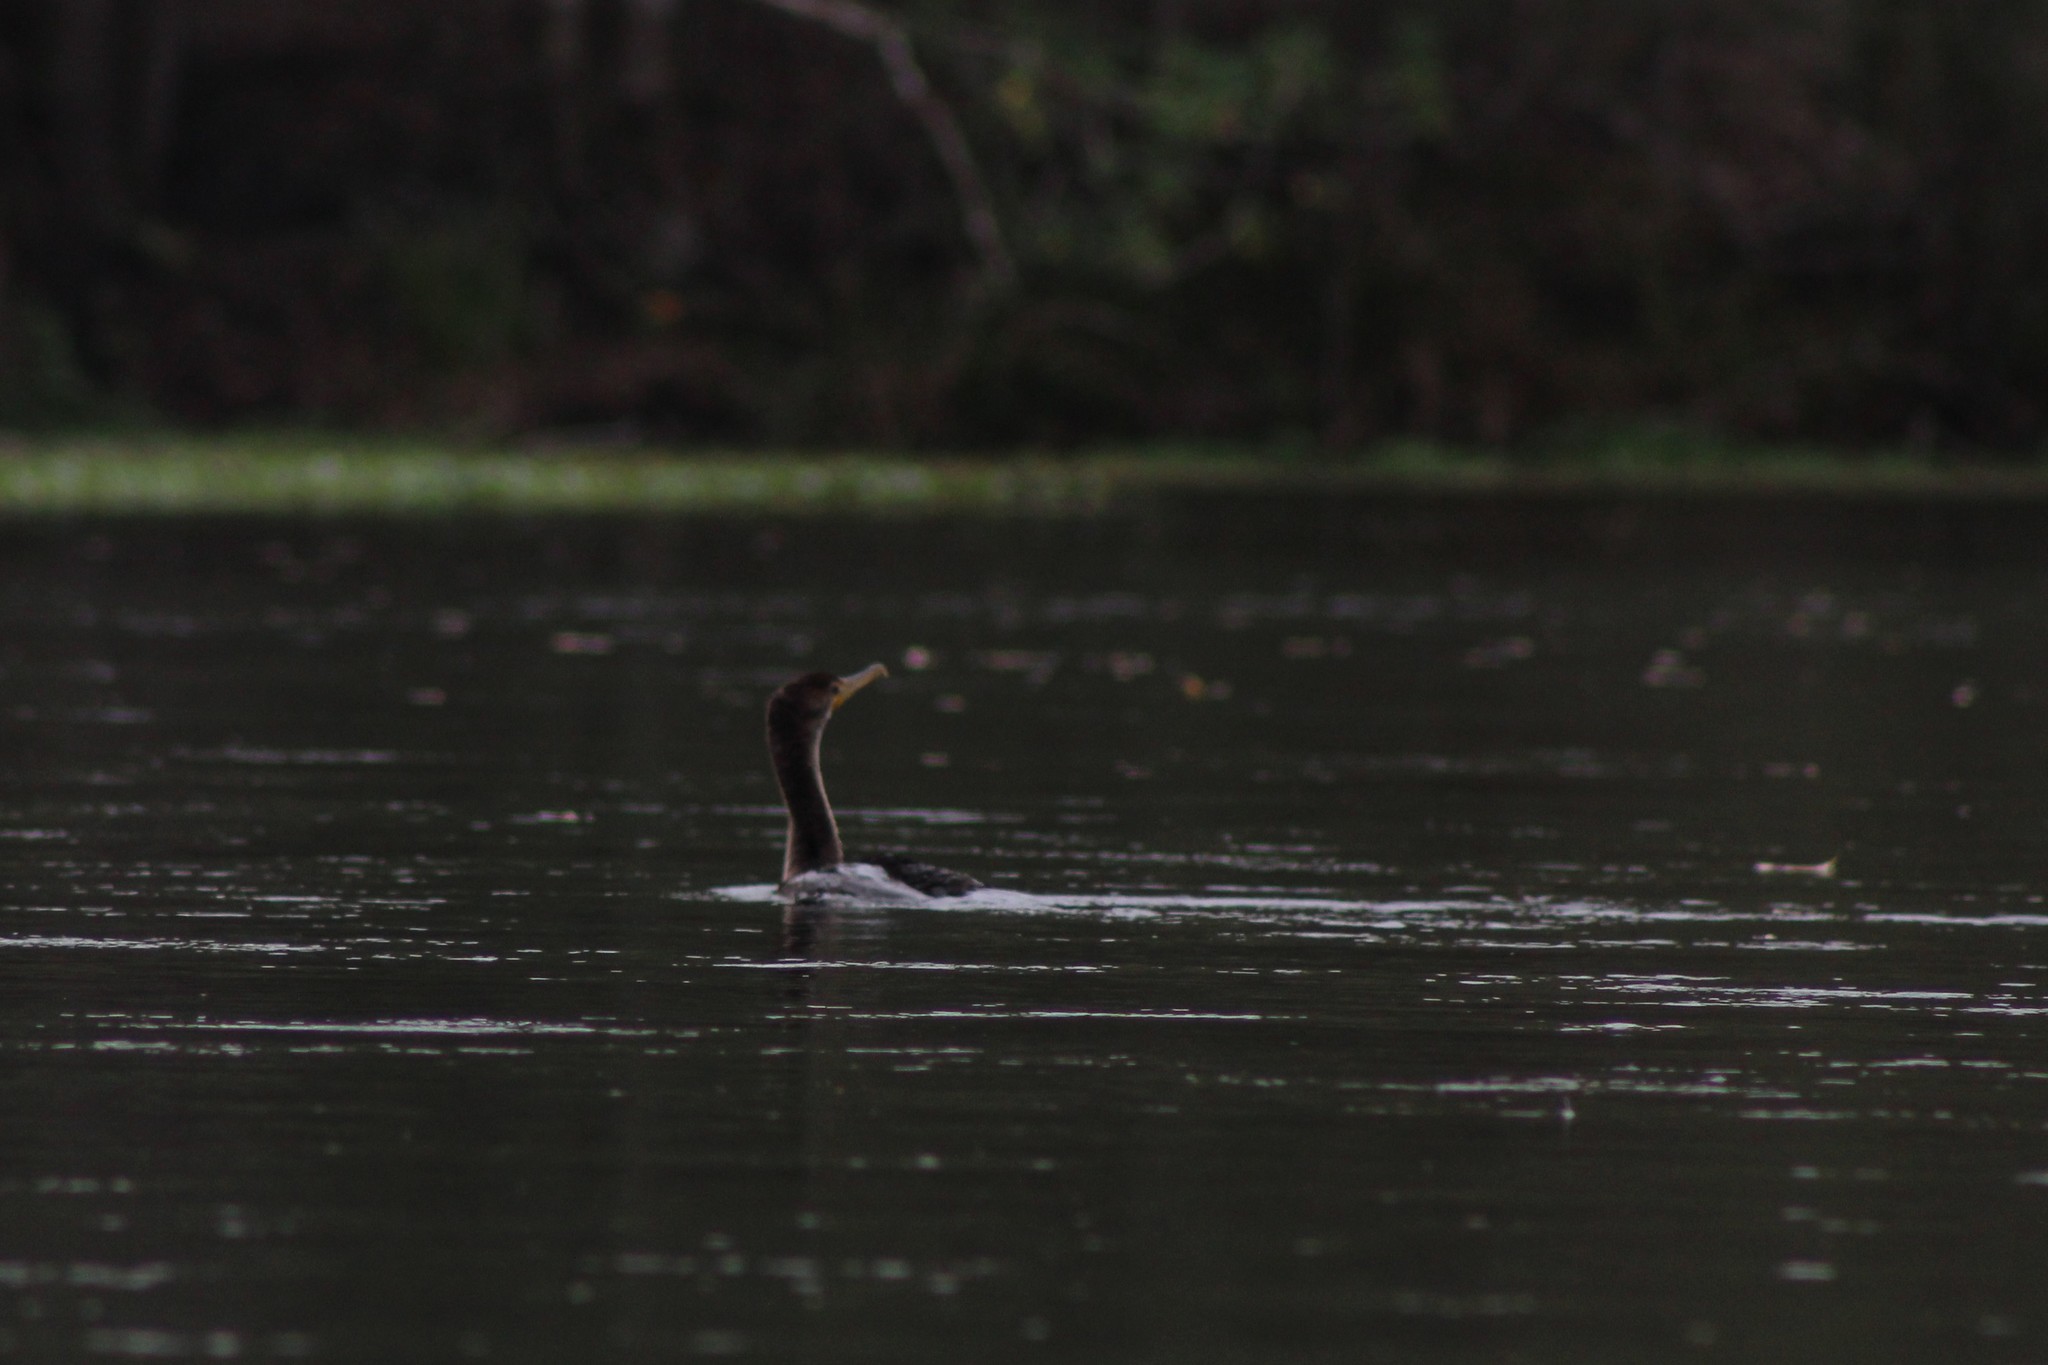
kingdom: Animalia
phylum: Chordata
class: Aves
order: Suliformes
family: Phalacrocoracidae
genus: Phalacrocorax
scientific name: Phalacrocorax auritus
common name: Double-crested cormorant
